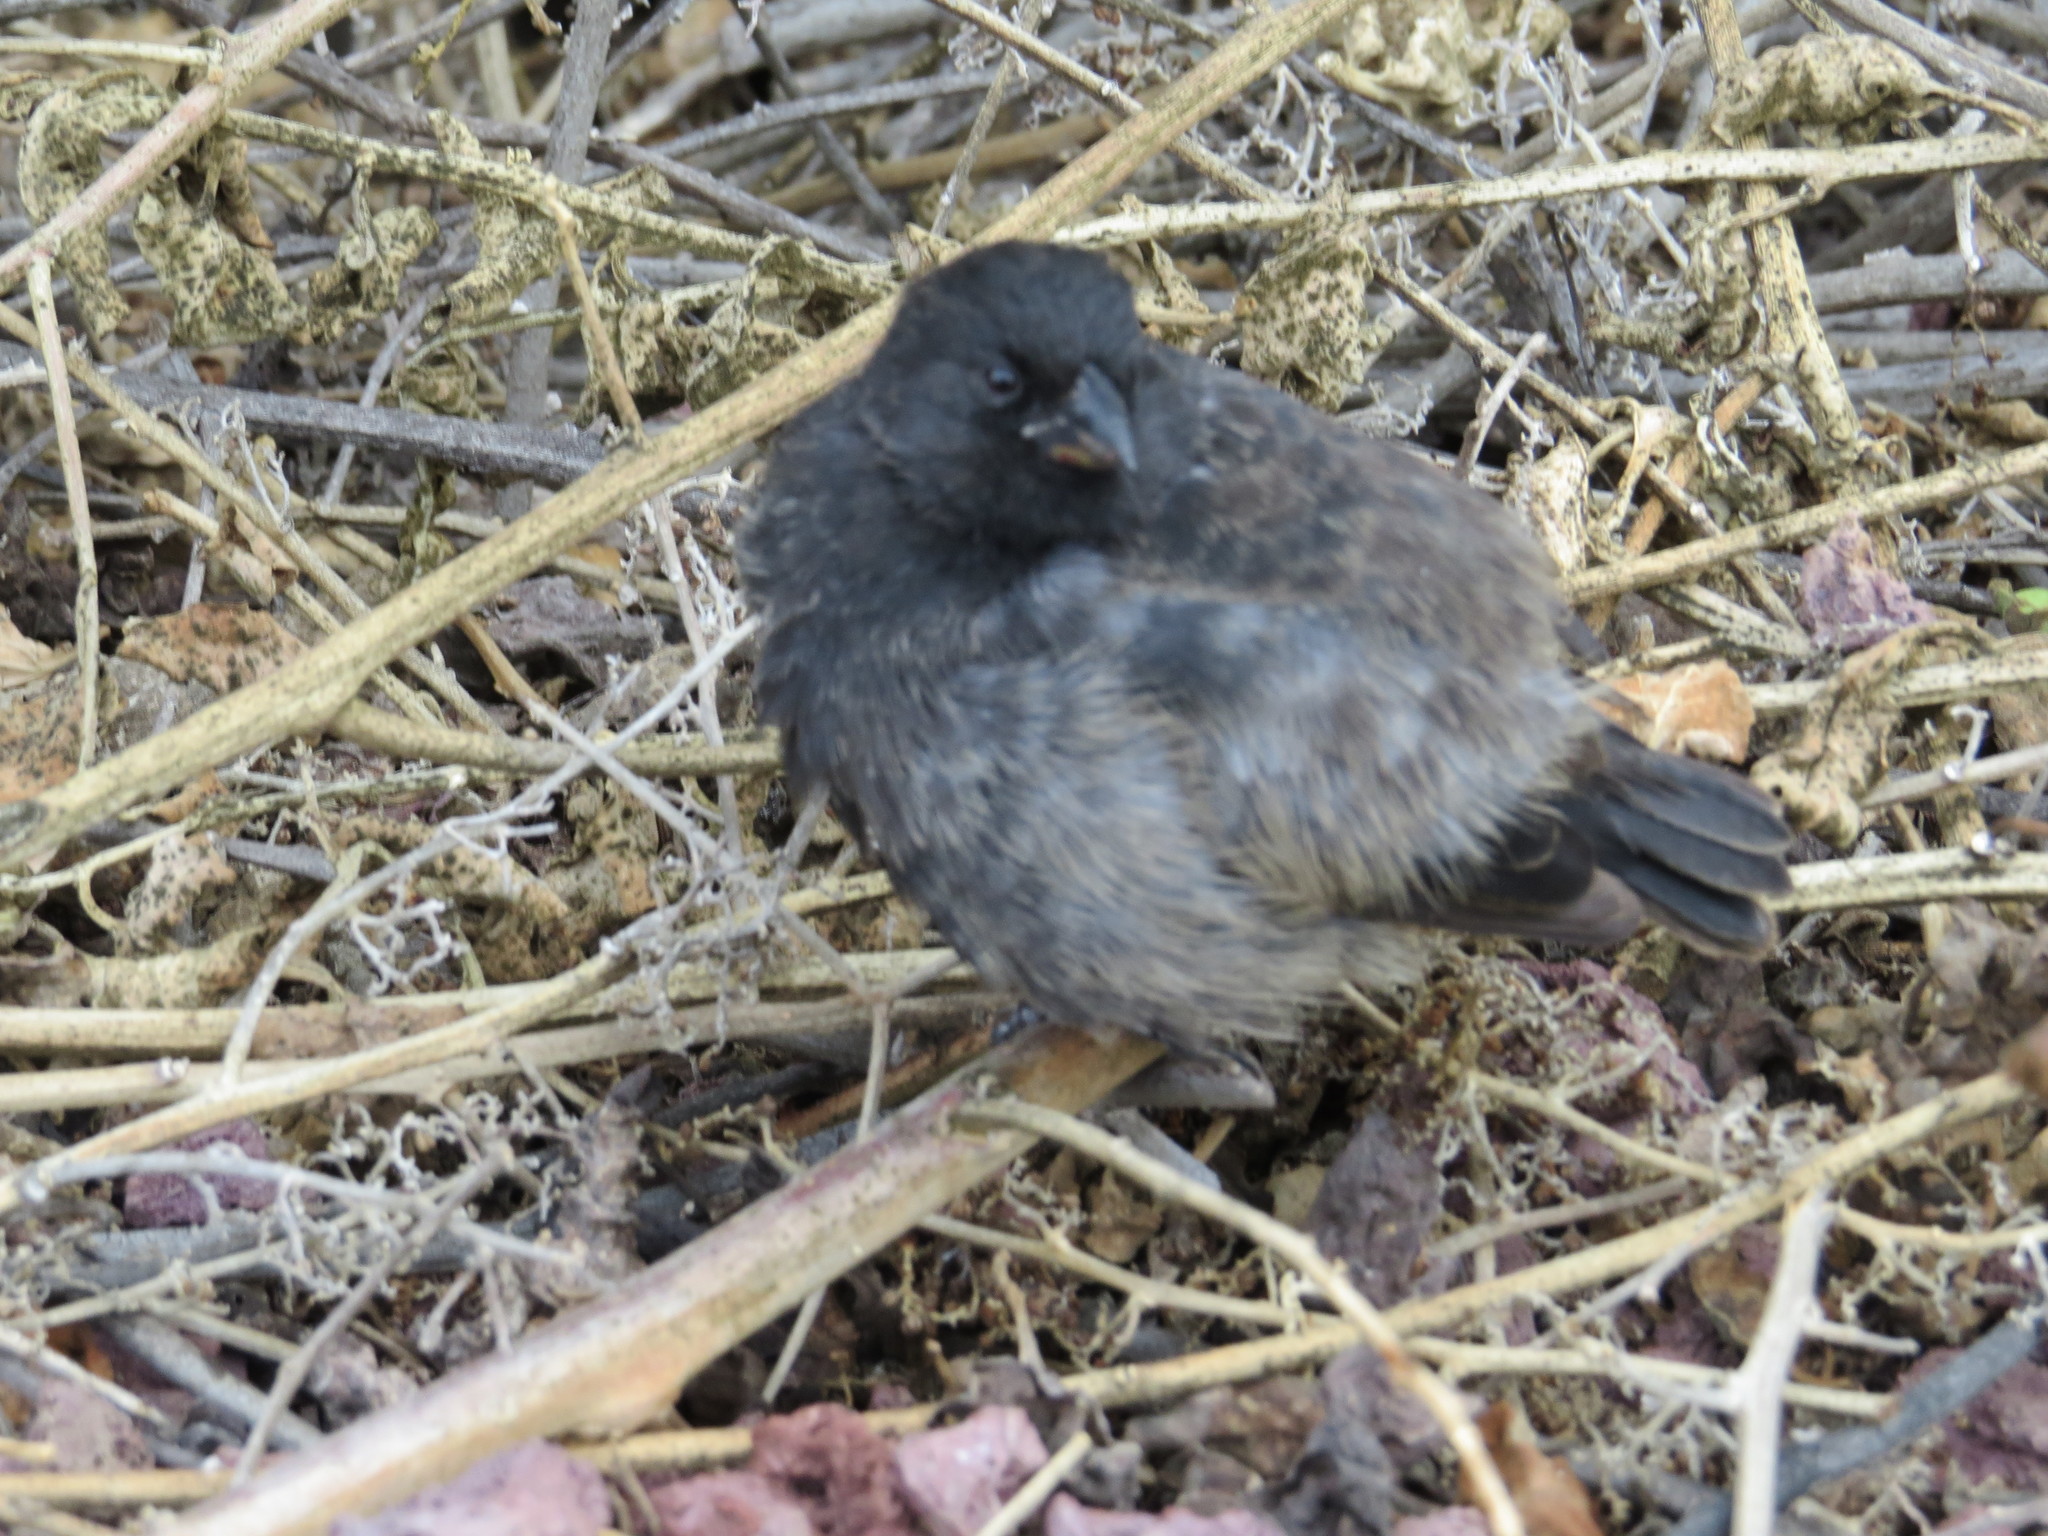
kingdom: Animalia
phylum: Chordata
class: Aves
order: Passeriformes
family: Thraupidae
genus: Geospiza
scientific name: Geospiza fuliginosa
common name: Small ground finch
